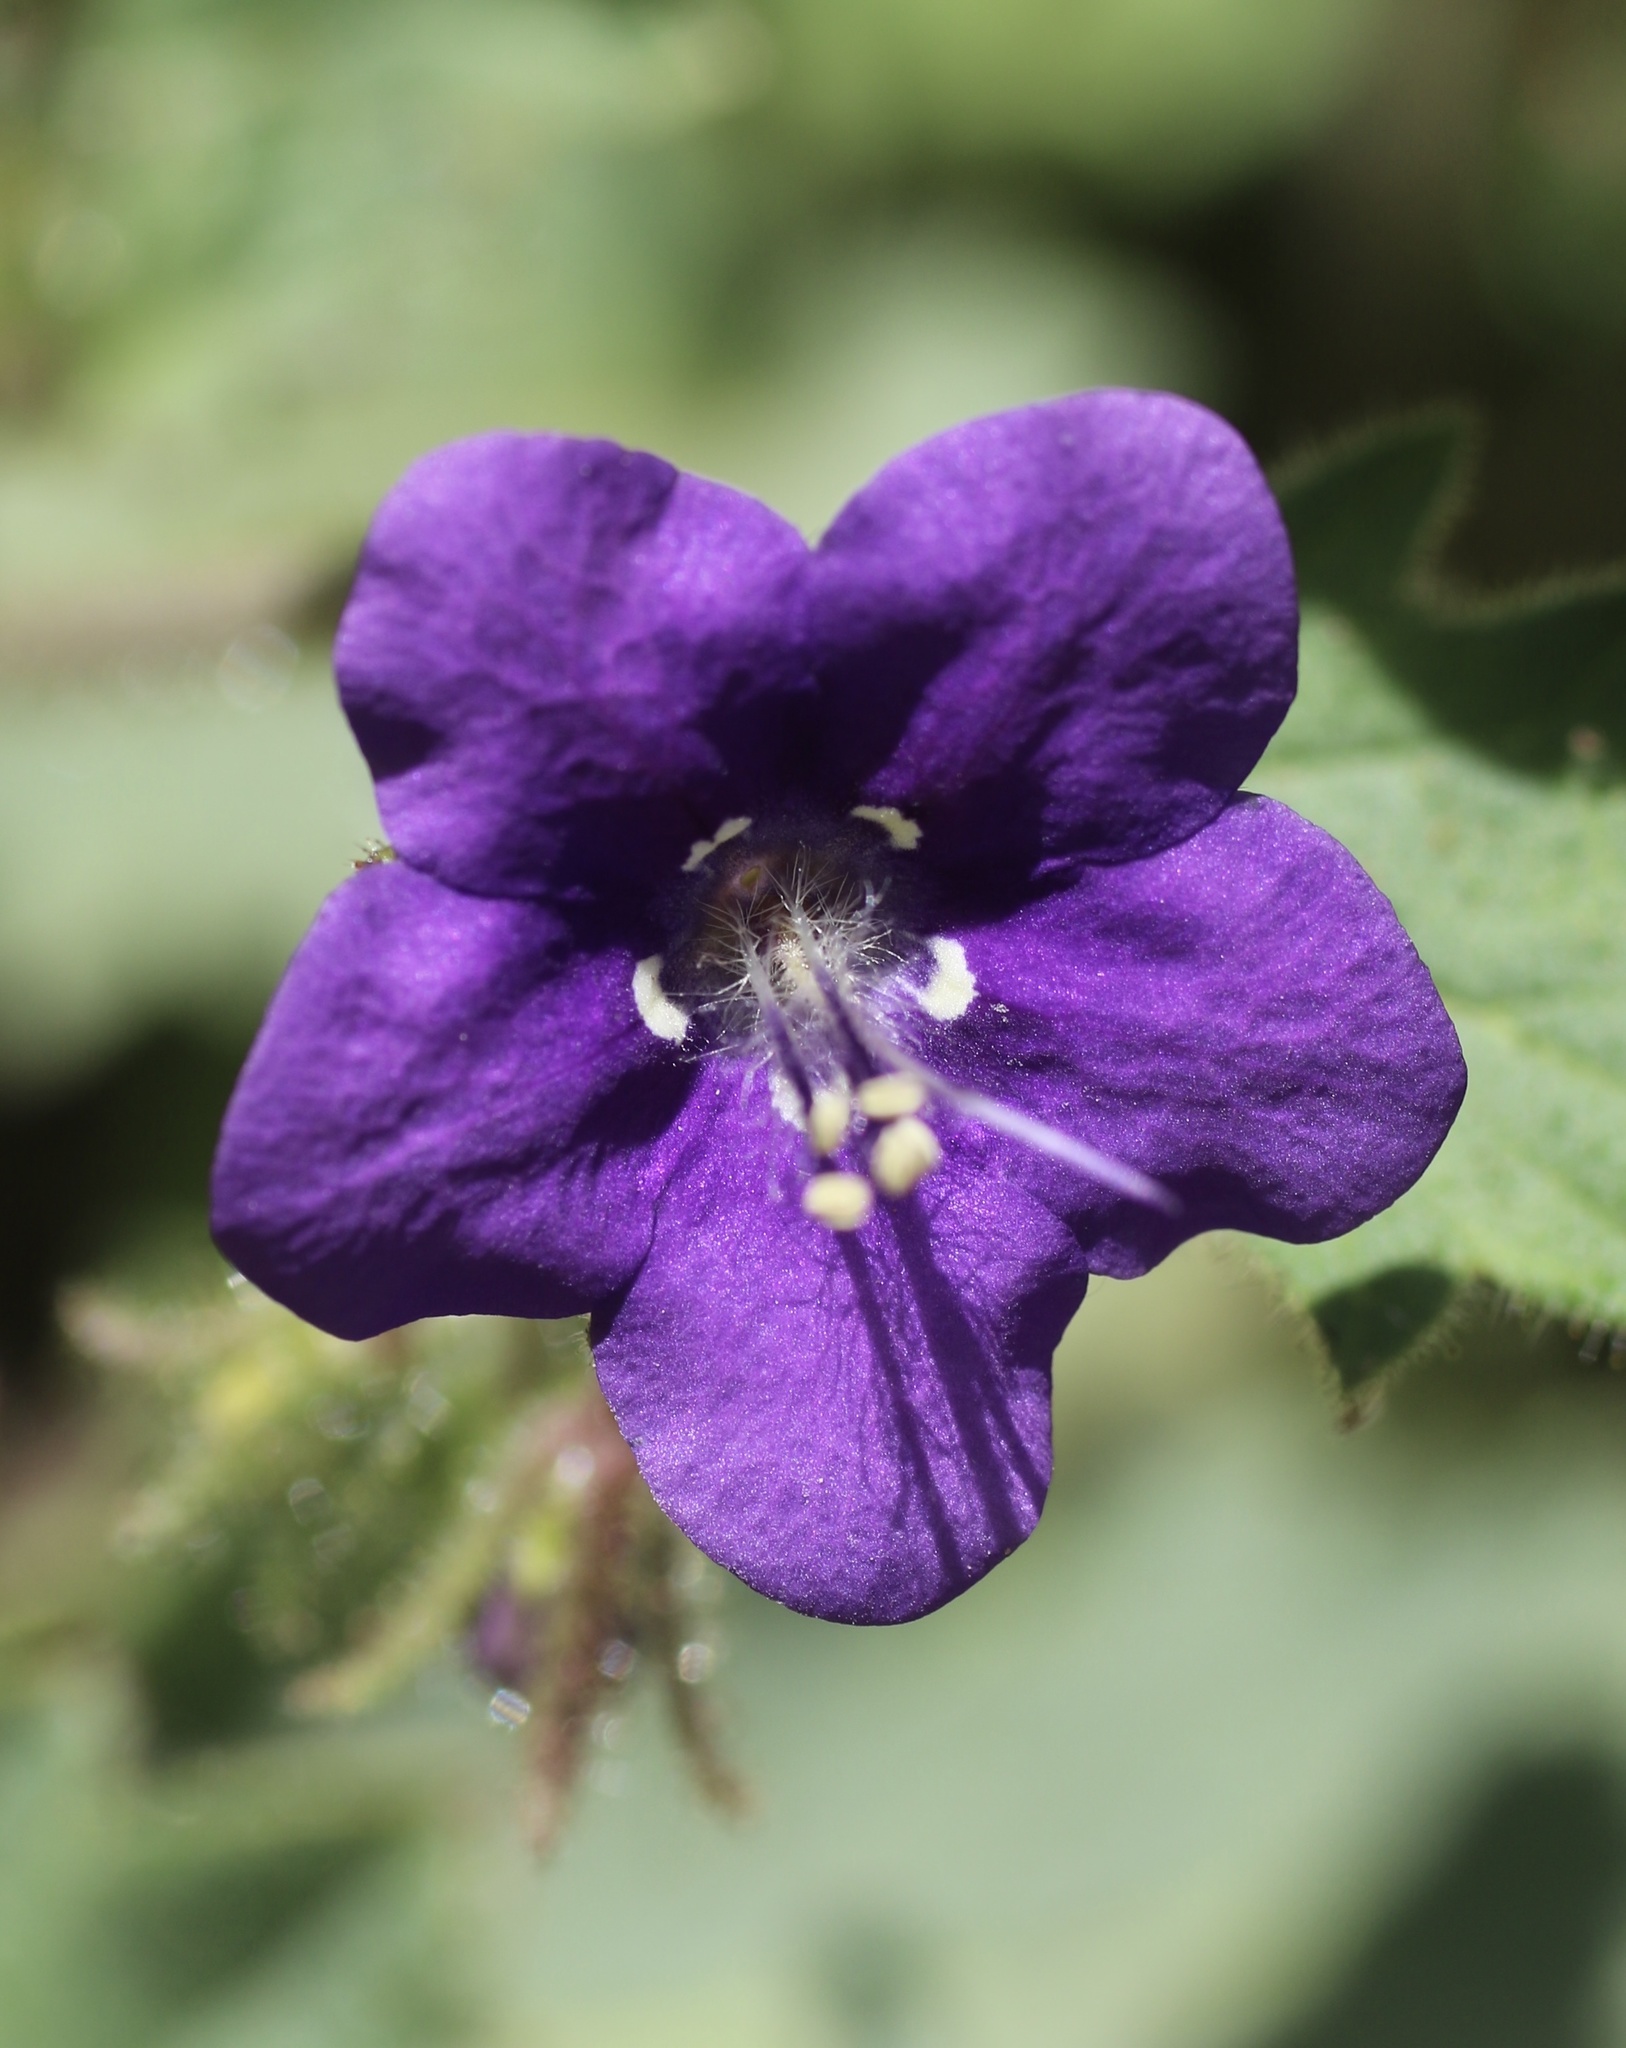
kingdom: Plantae
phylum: Tracheophyta
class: Magnoliopsida
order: Boraginales
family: Hydrophyllaceae
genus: Phacelia
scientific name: Phacelia parryi
